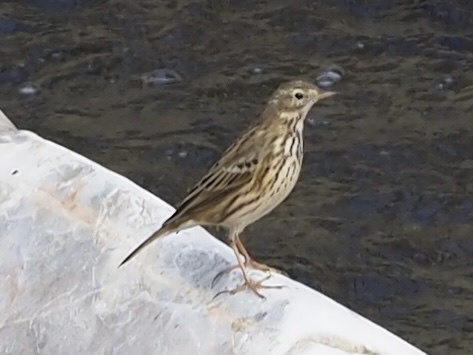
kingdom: Animalia
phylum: Chordata
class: Aves
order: Passeriformes
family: Motacillidae
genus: Anthus
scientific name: Anthus pratensis
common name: Meadow pipit
